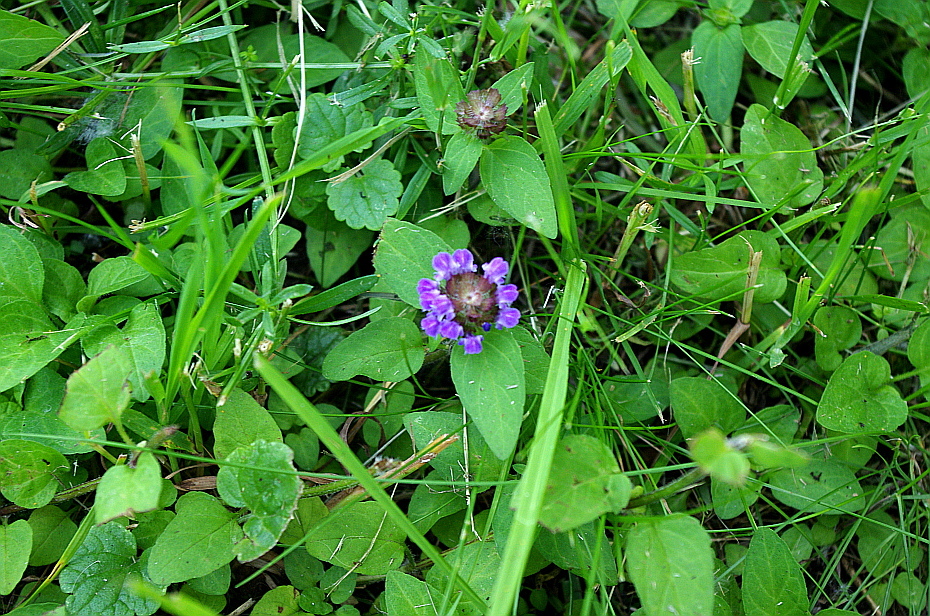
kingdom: Plantae
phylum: Tracheophyta
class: Magnoliopsida
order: Lamiales
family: Lamiaceae
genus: Prunella
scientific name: Prunella vulgaris
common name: Heal-all
